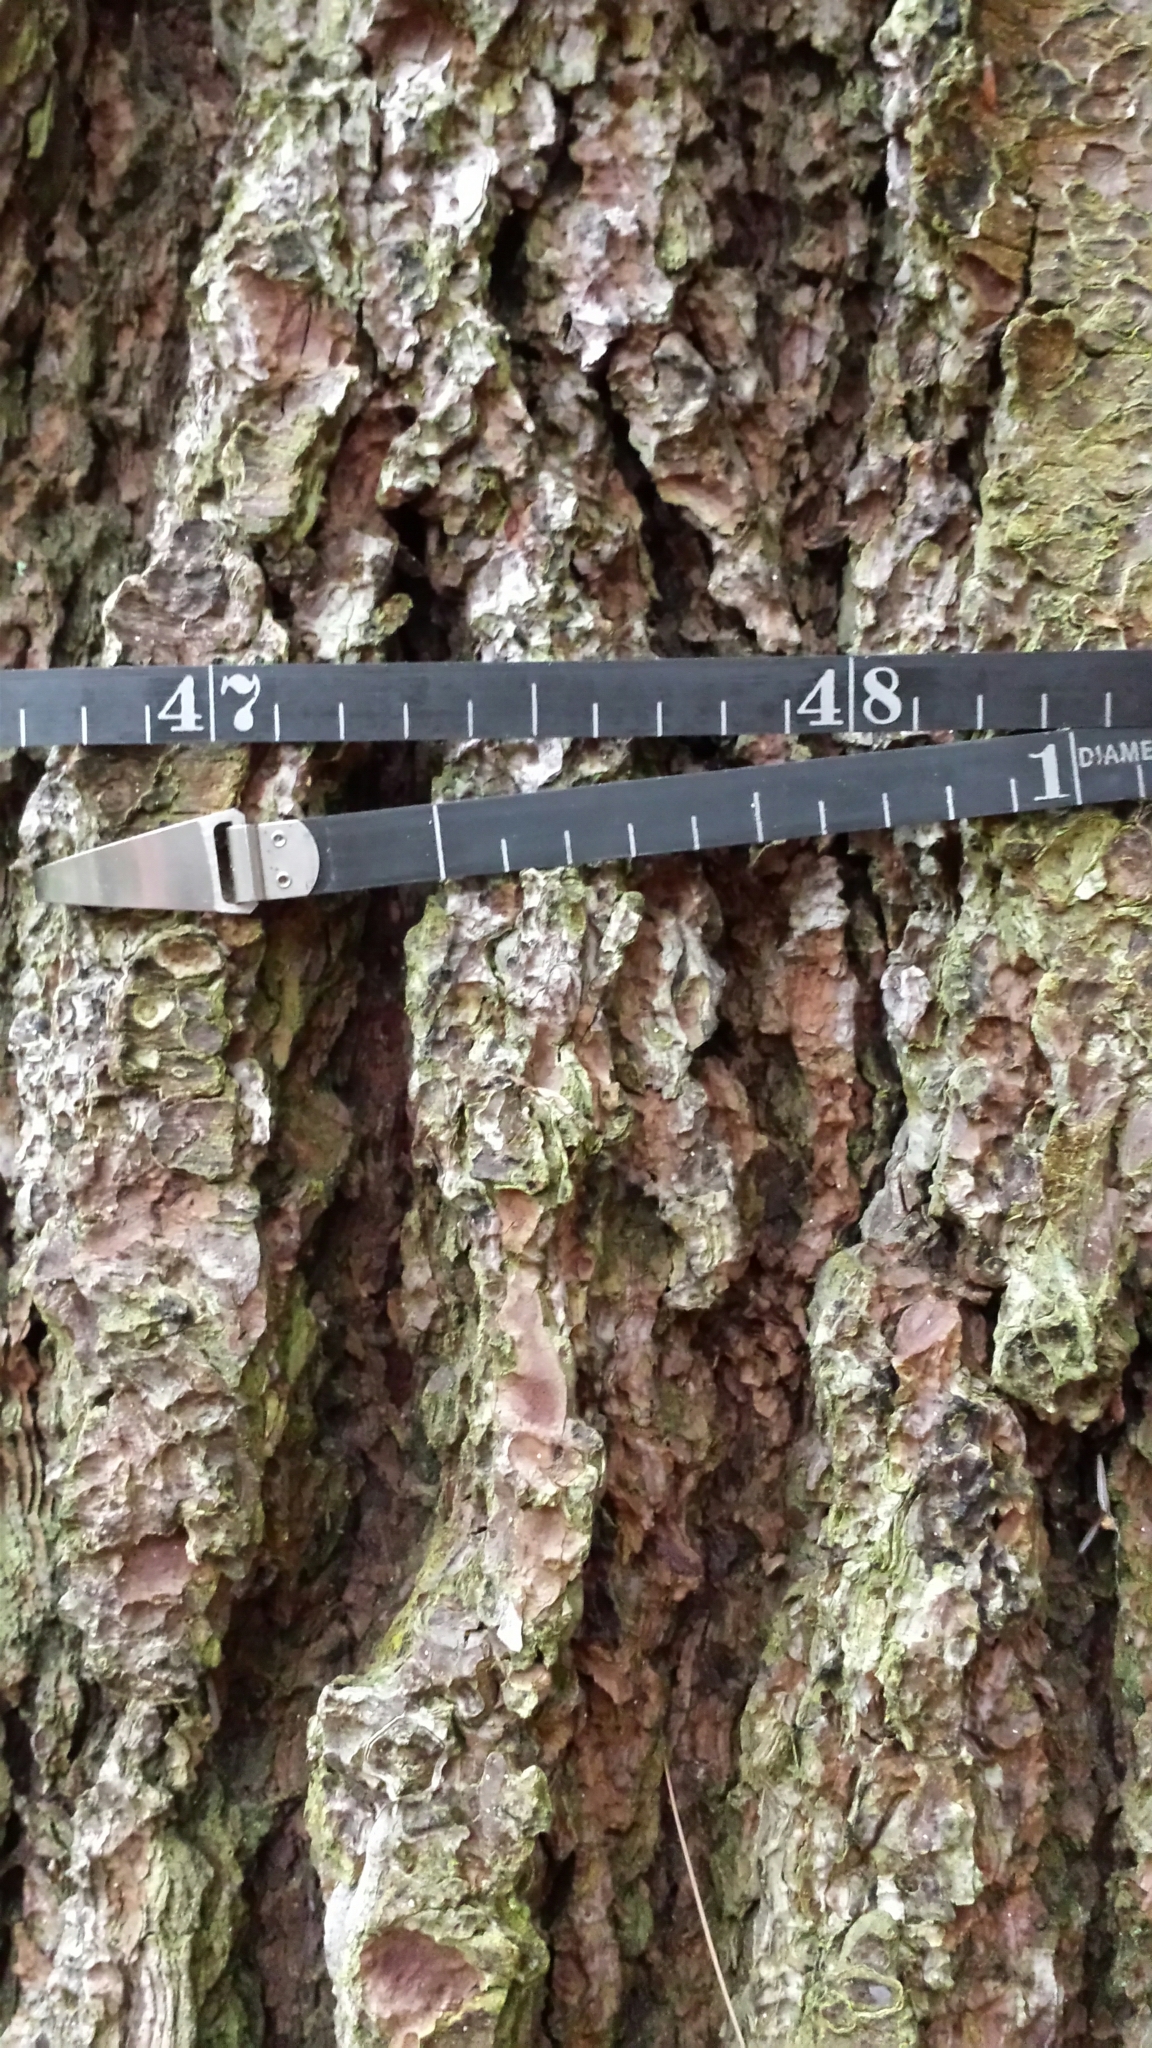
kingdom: Plantae
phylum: Tracheophyta
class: Pinopsida
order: Pinales
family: Pinaceae
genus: Pinus
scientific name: Pinus strobus
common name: Weymouth pine
